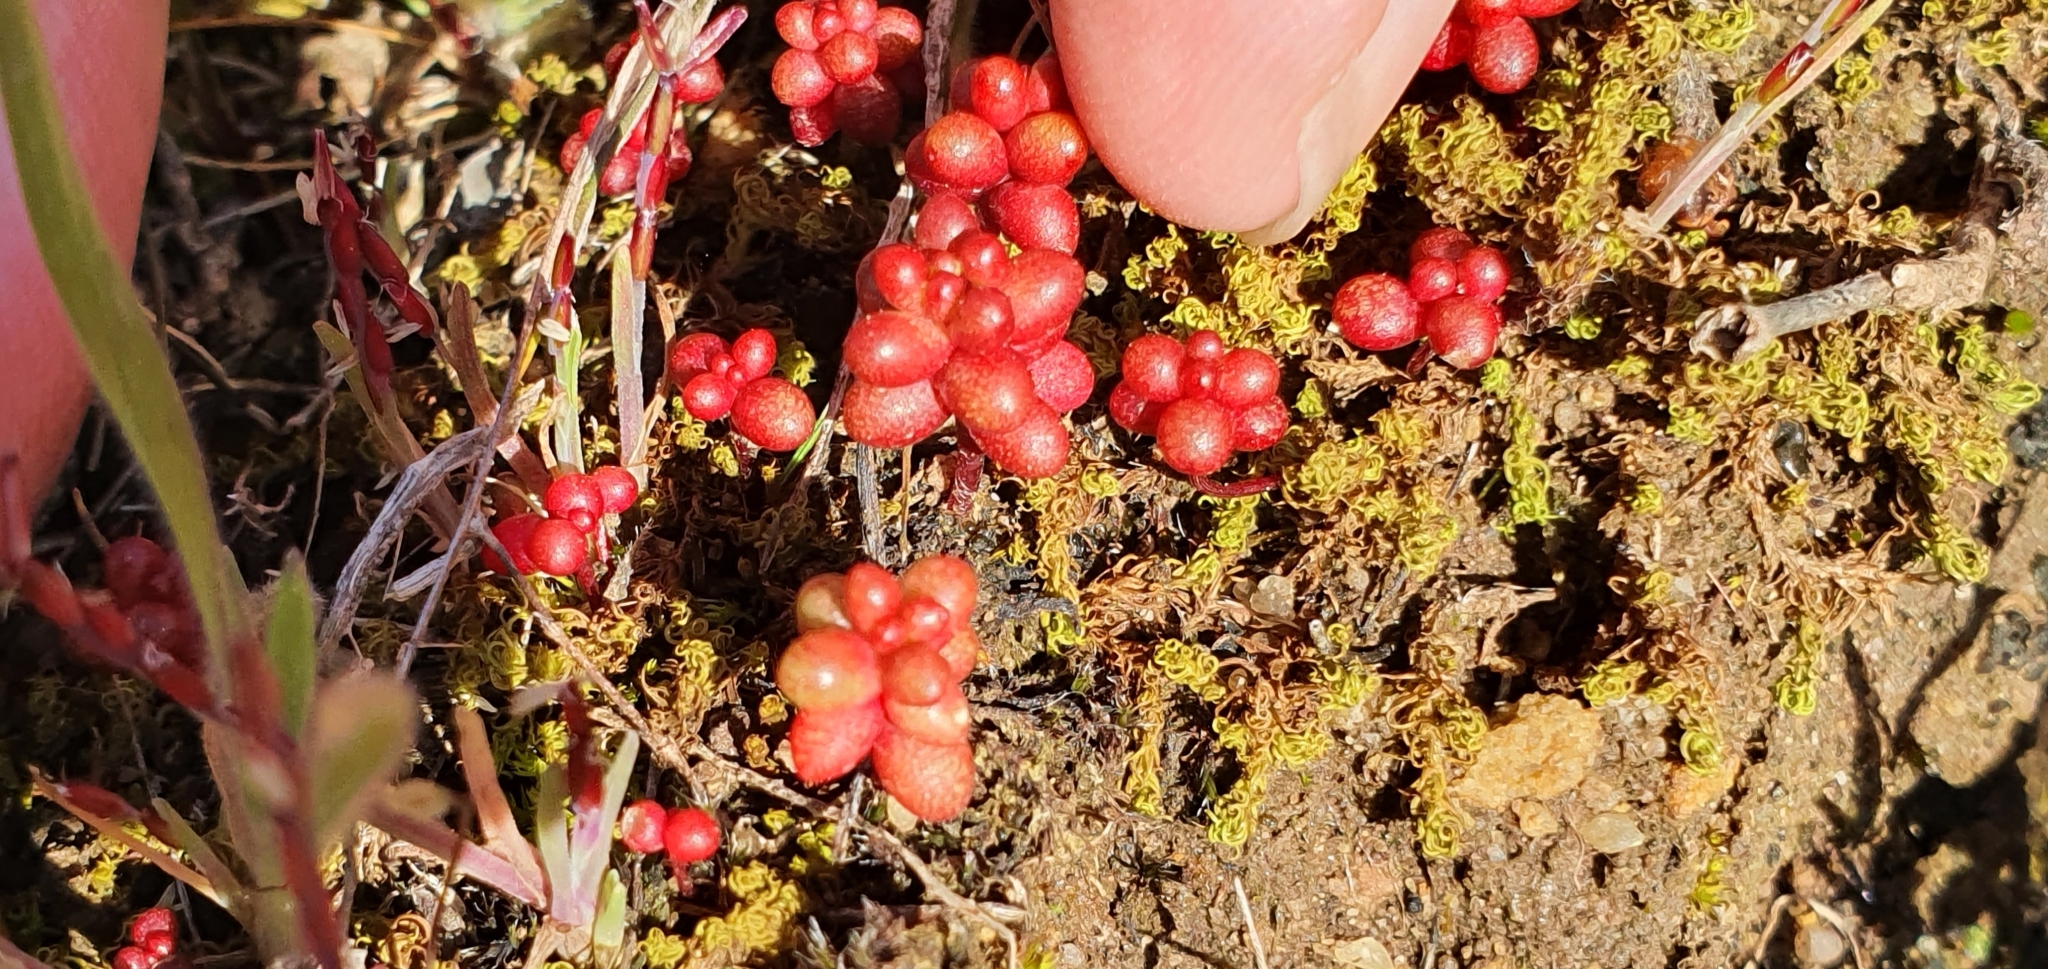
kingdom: Plantae
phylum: Tracheophyta
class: Magnoliopsida
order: Saxifragales
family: Crassulaceae
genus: Sedum
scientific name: Sedum caeruleum
